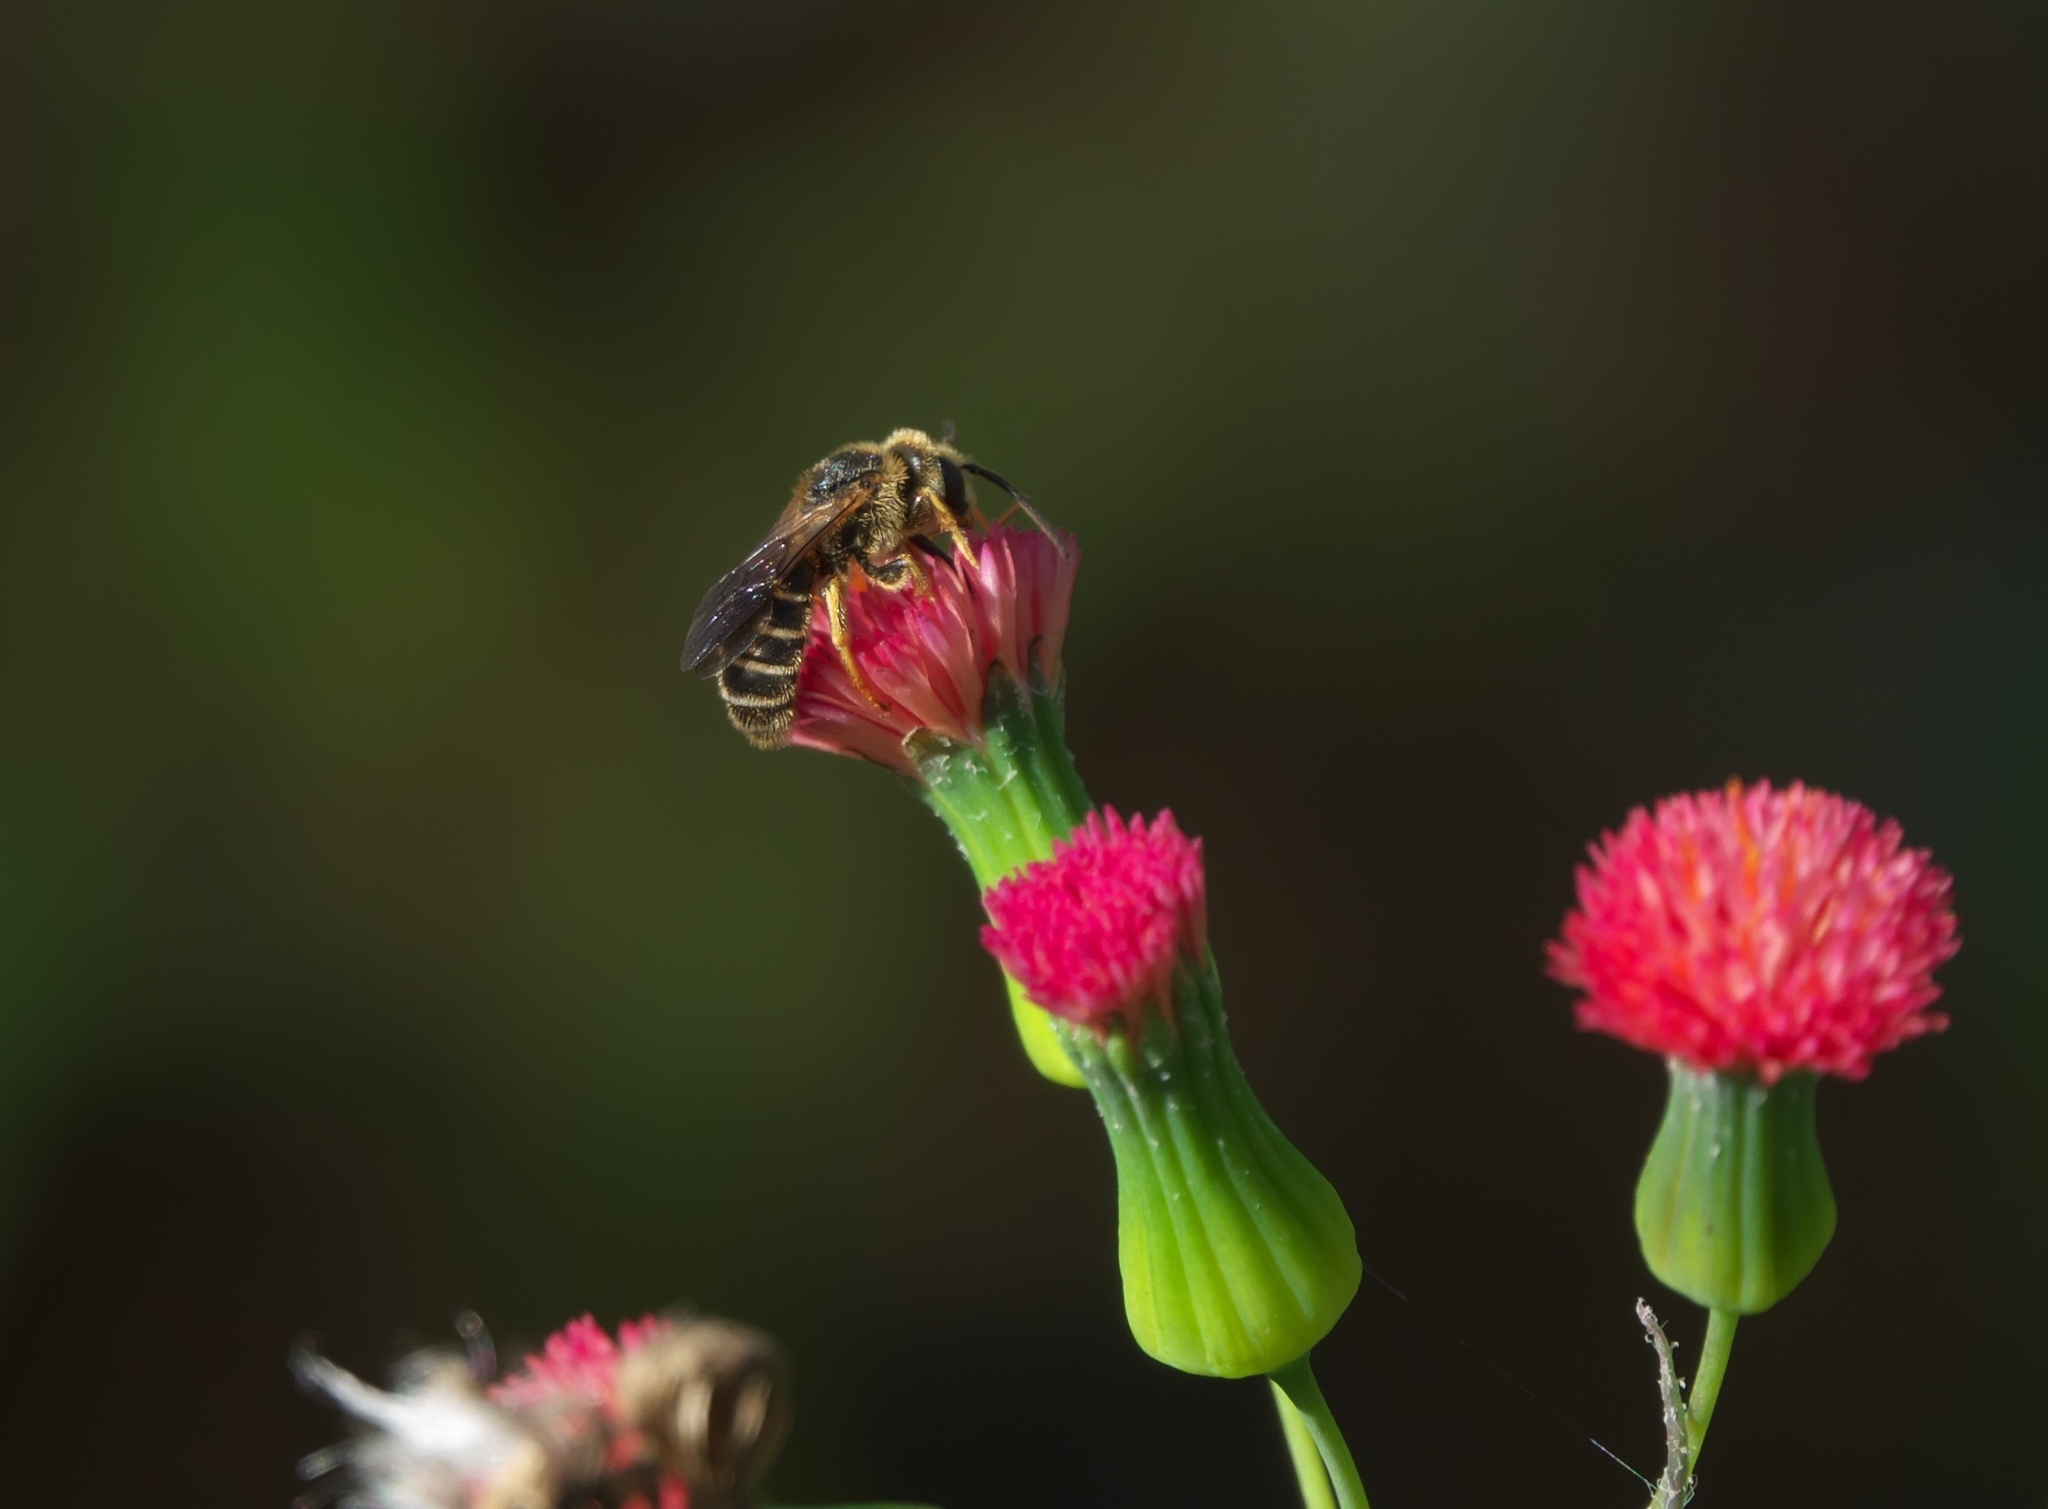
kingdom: Animalia
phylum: Arthropoda
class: Insecta
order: Hymenoptera
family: Halictidae
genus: Halictus
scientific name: Halictus poeyi
